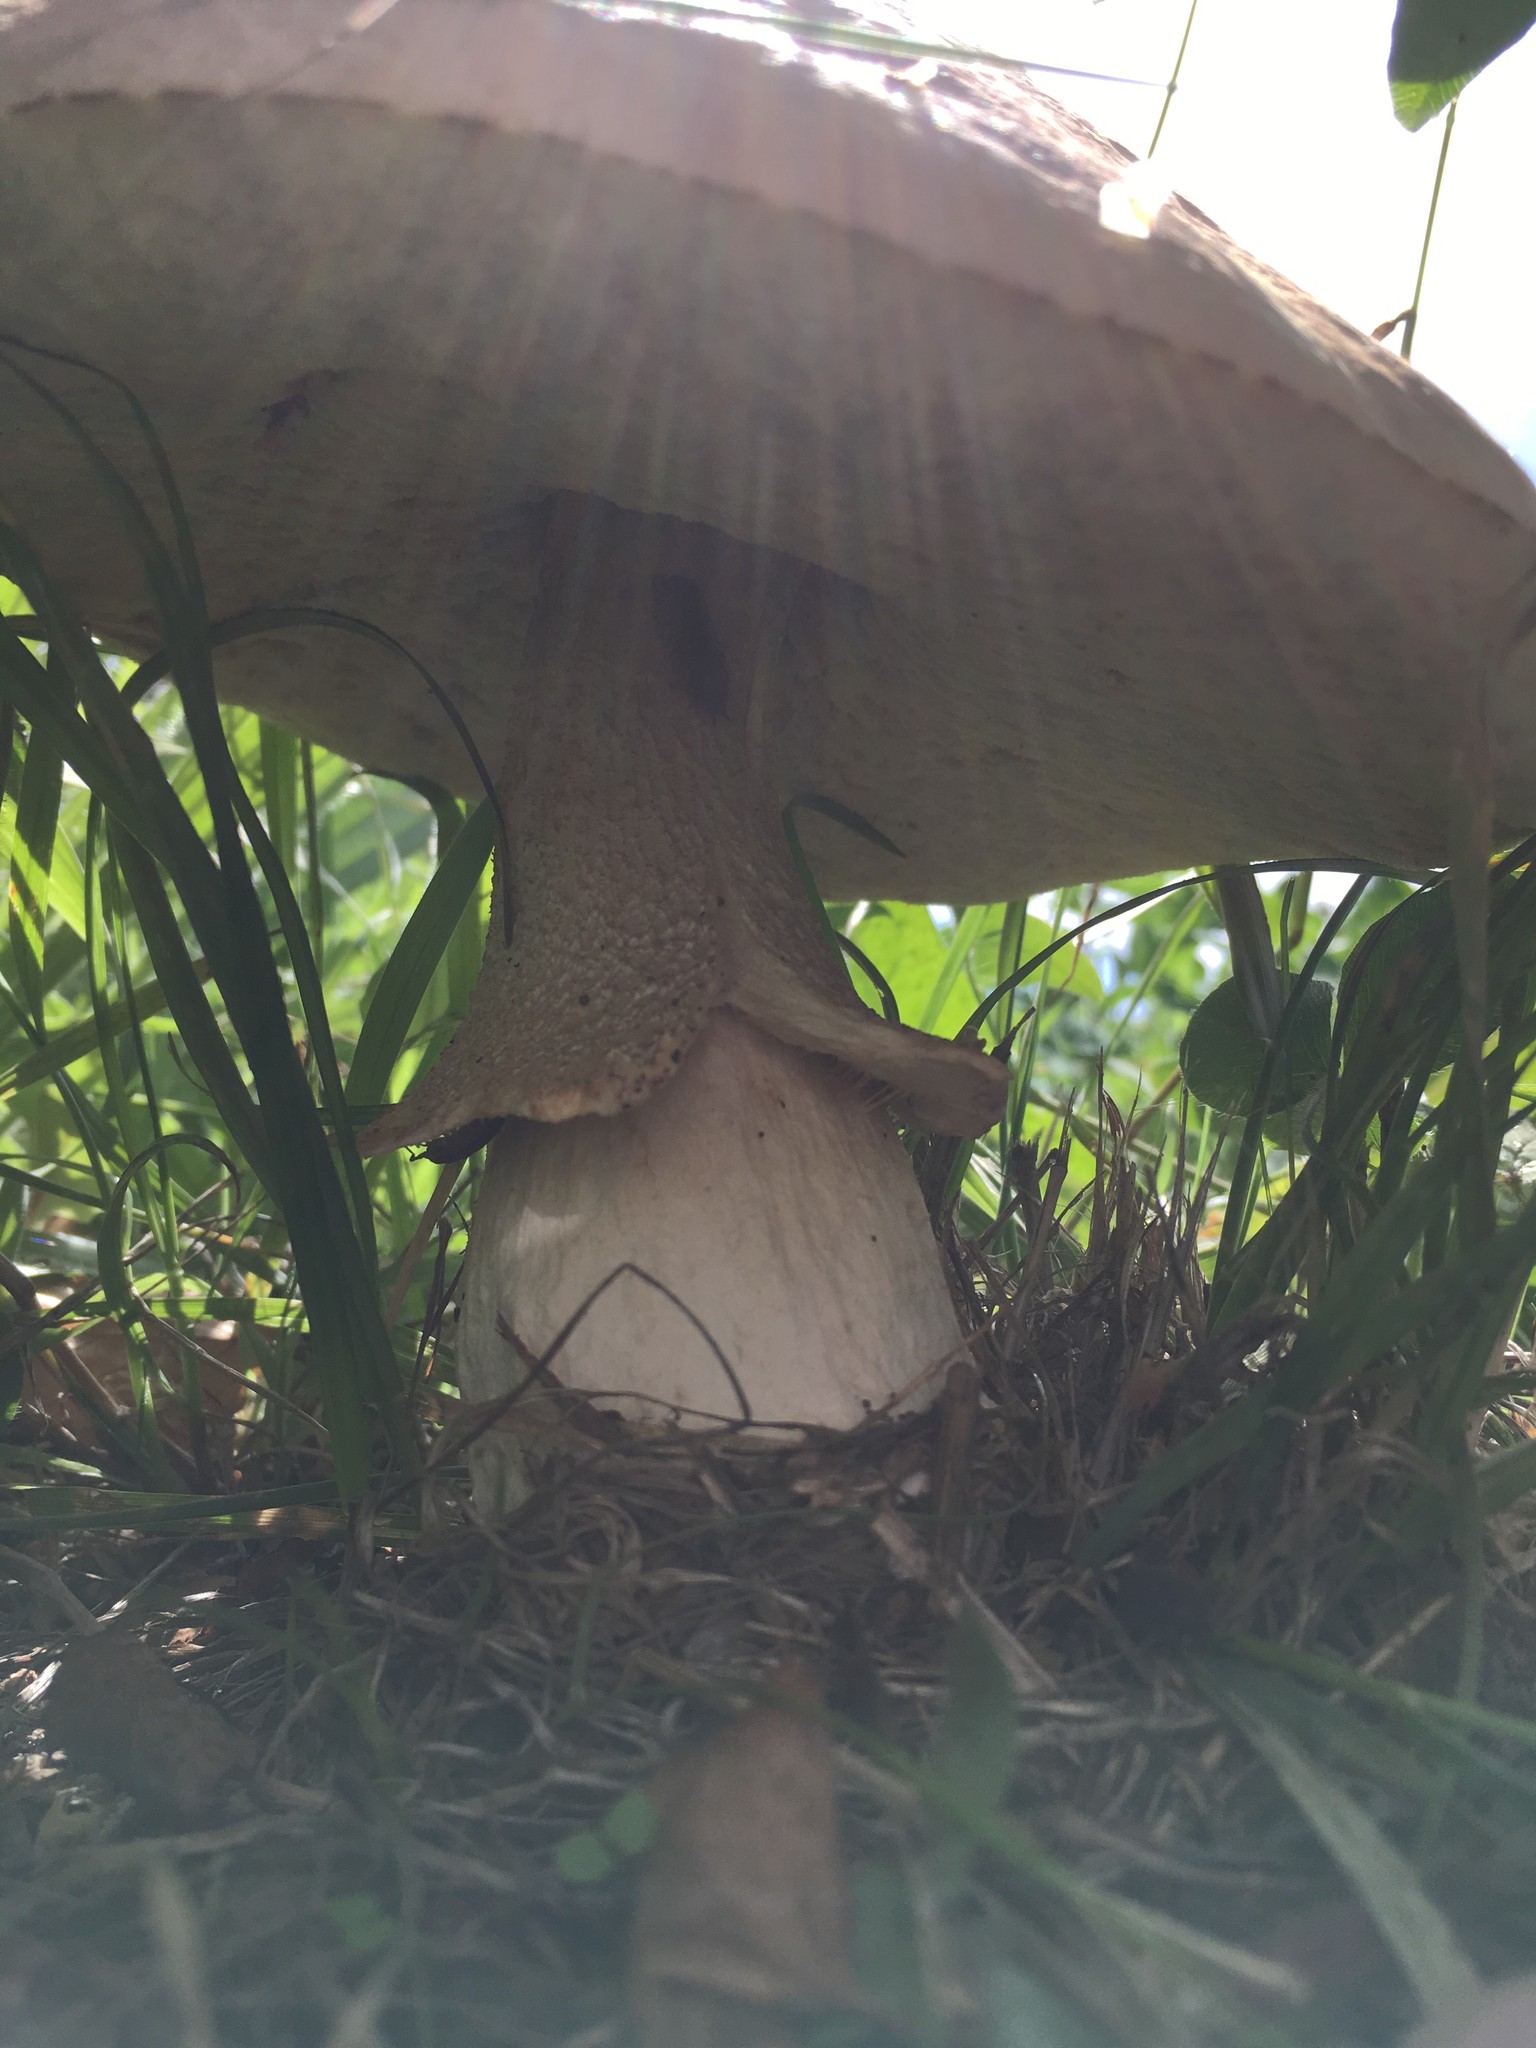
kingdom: Fungi
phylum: Basidiomycota
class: Agaricomycetes
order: Boletales
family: Boletaceae
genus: Leccinum
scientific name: Leccinum scabrum
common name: Blushing bolete
